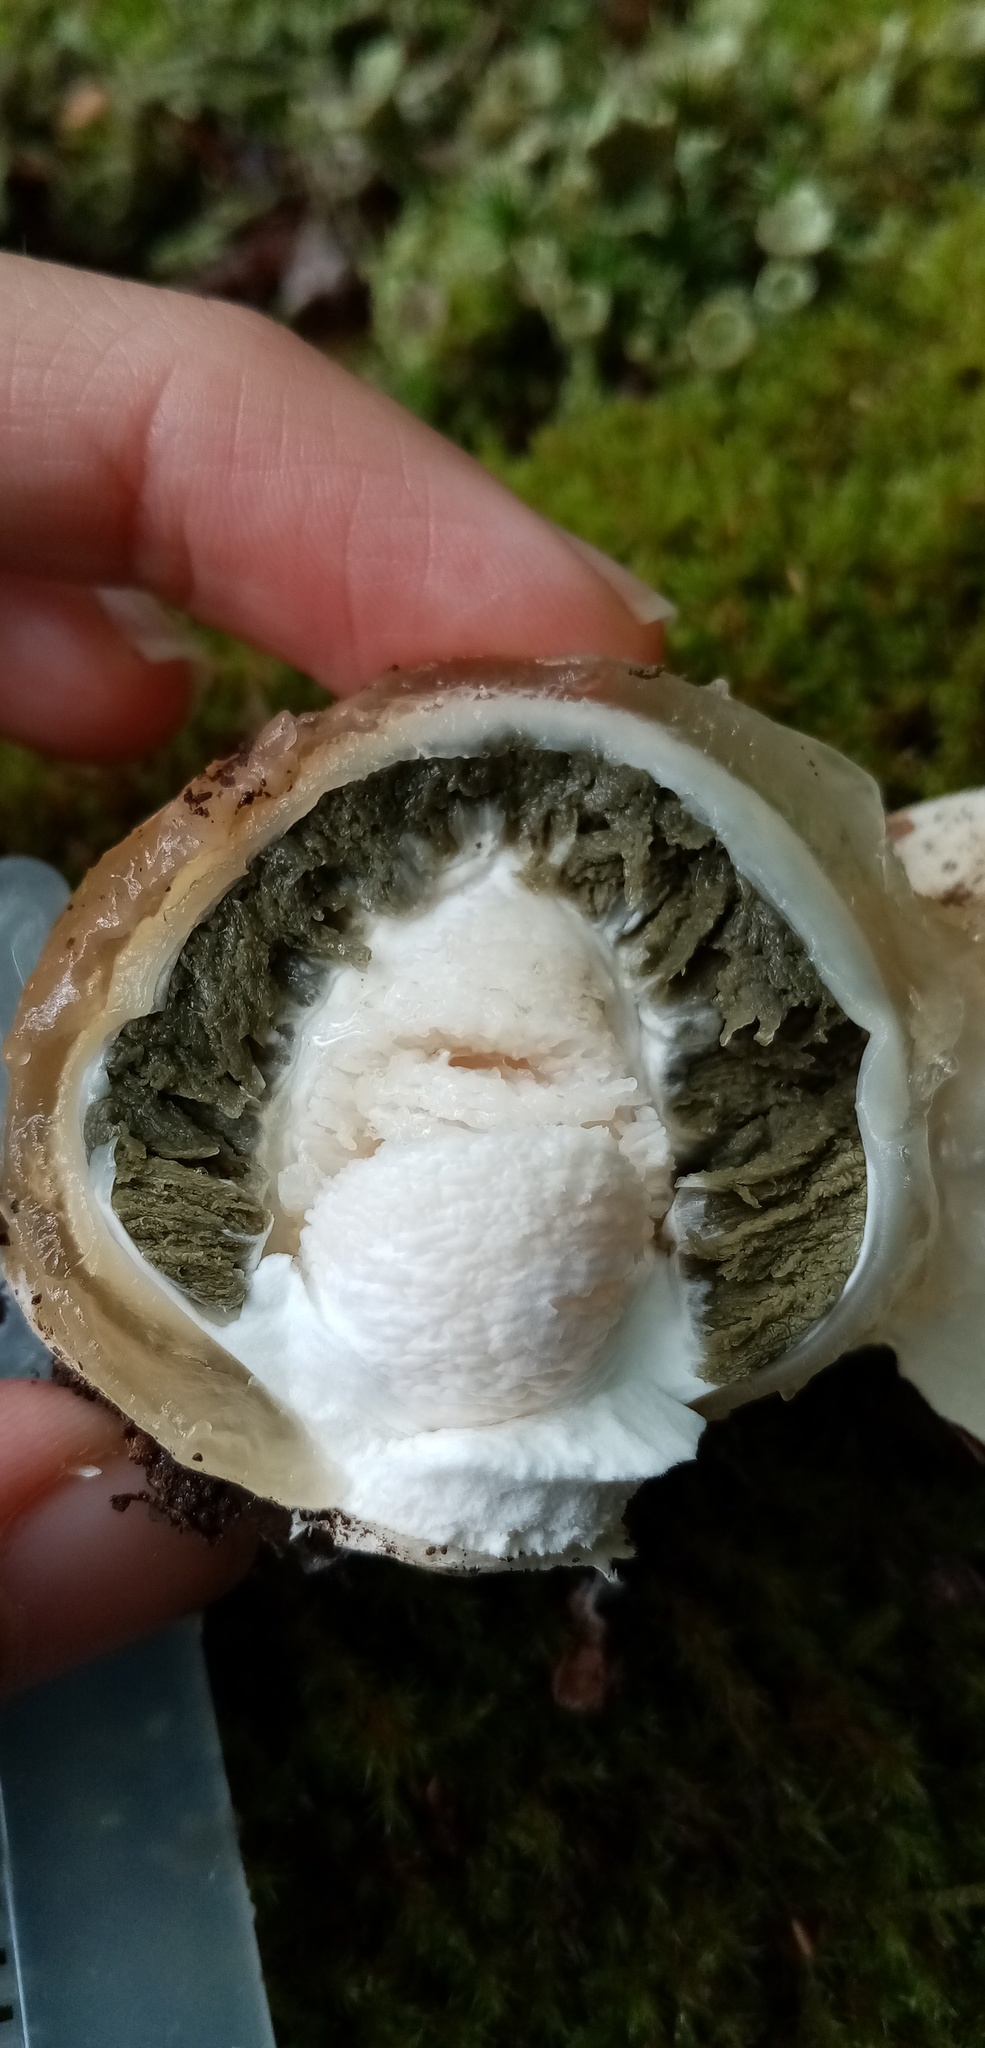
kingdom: Fungi
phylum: Basidiomycota
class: Agaricomycetes
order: Phallales
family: Phallaceae
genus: Phallus
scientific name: Phallus impudicus
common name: Common stinkhorn
